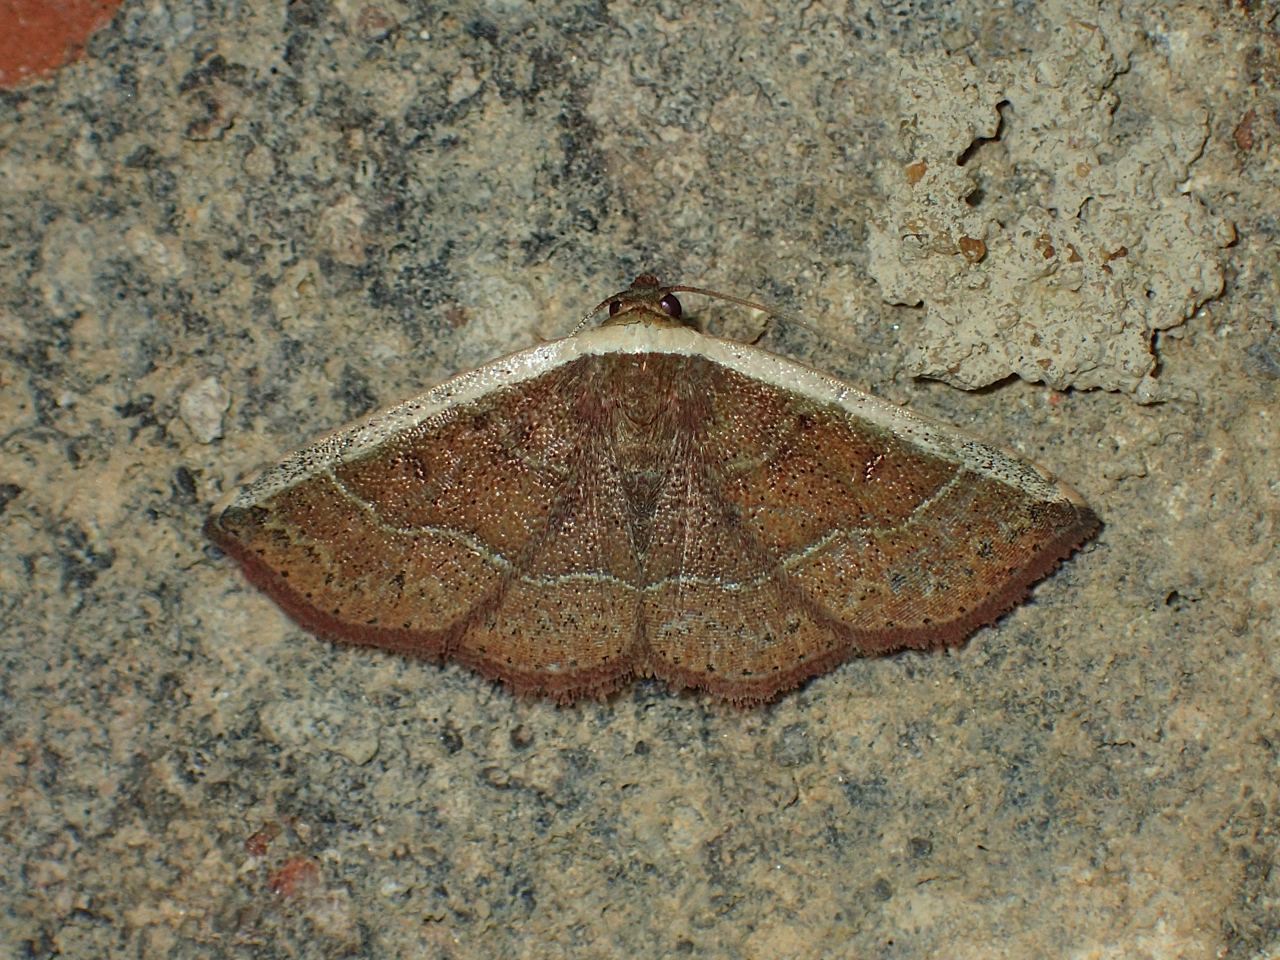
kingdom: Animalia
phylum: Arthropoda
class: Insecta
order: Lepidoptera
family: Noctuidae
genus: Ozarba
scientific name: Ozarba albocostaliata
